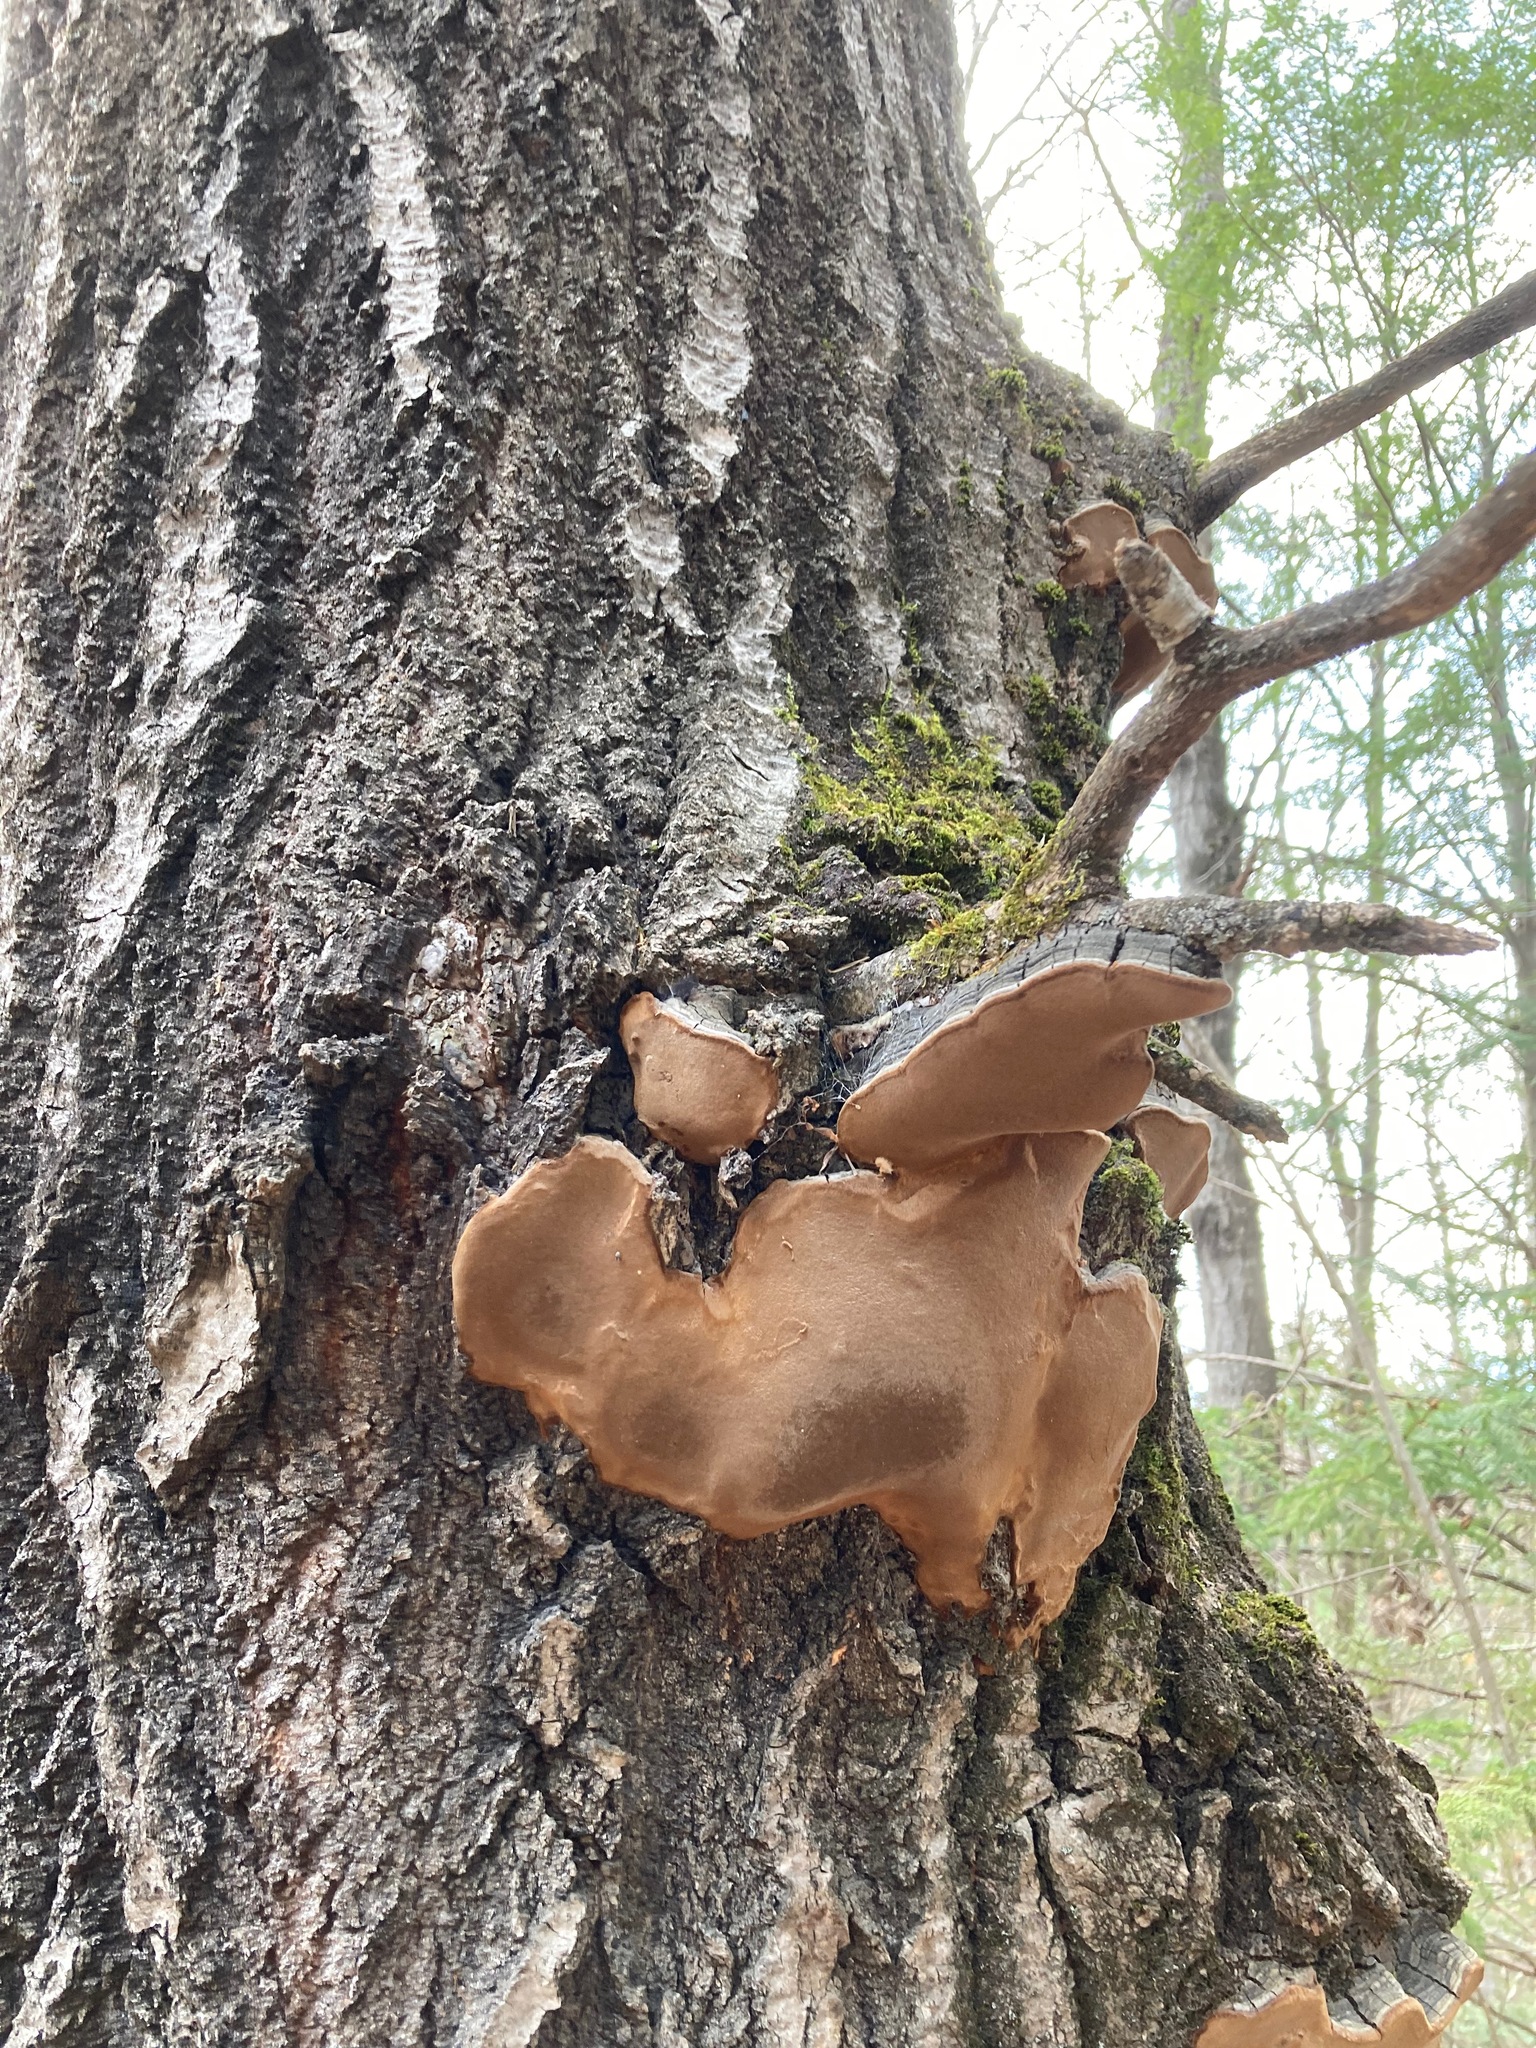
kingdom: Fungi
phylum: Basidiomycota
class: Agaricomycetes
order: Hymenochaetales
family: Hymenochaetaceae
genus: Phellinus
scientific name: Phellinus tremulae
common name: Aspen bracket
